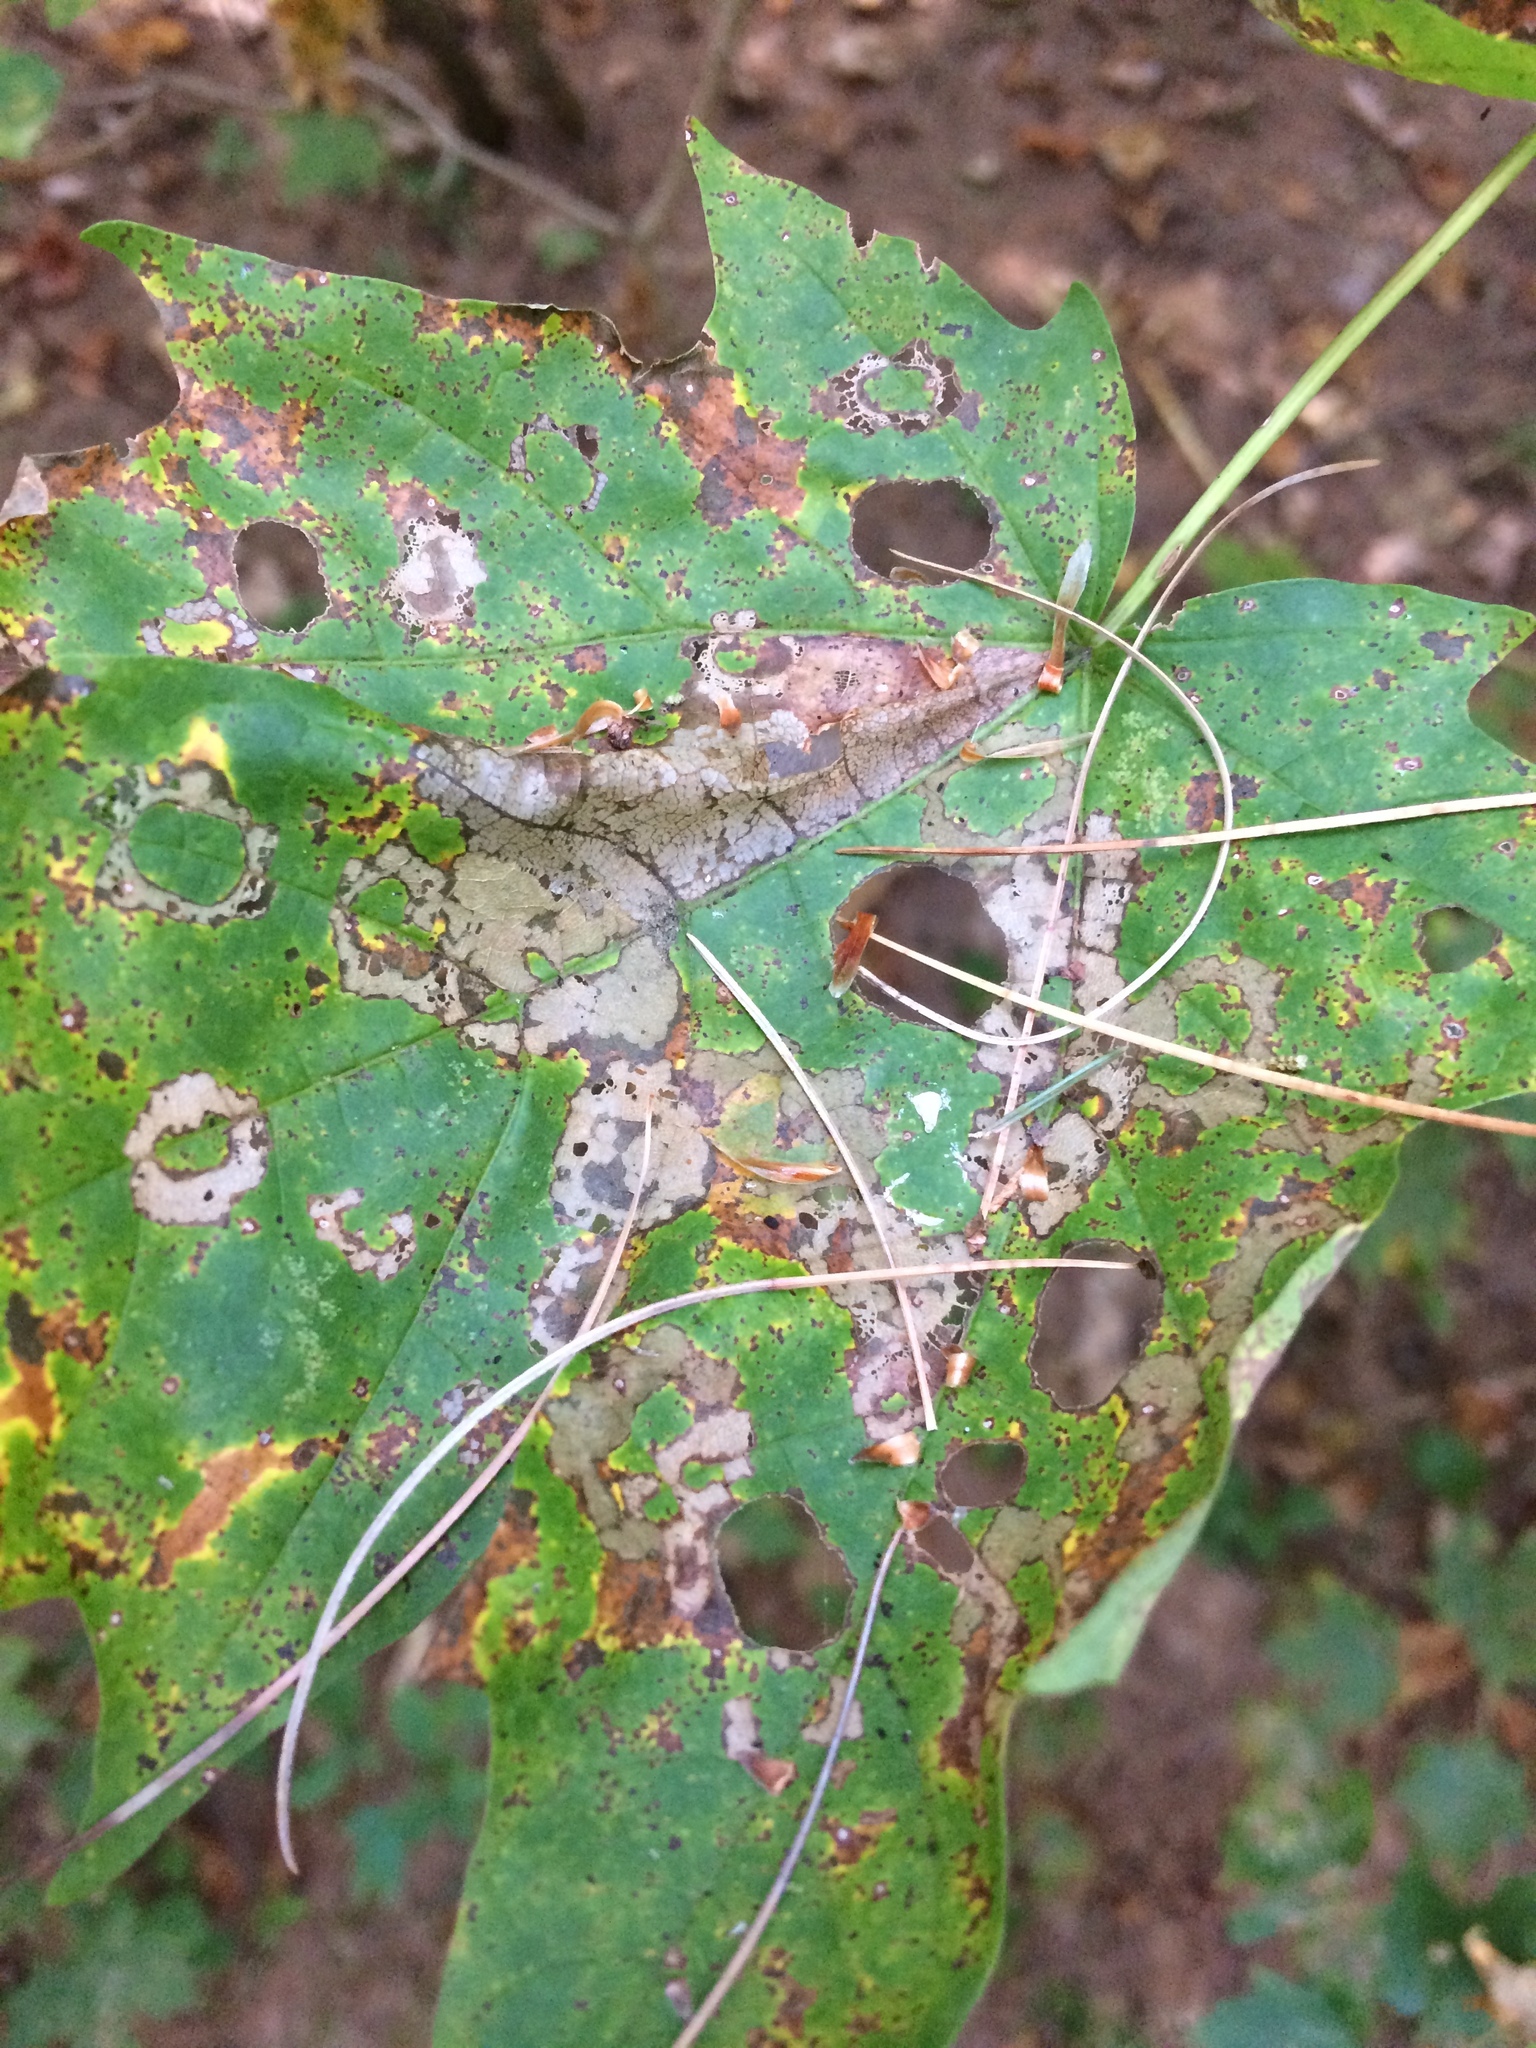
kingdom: Animalia
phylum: Arthropoda
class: Insecta
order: Lepidoptera
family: Incurvariidae
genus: Paraclemensia
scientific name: Paraclemensia acerifoliella
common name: Maple leafcutter
